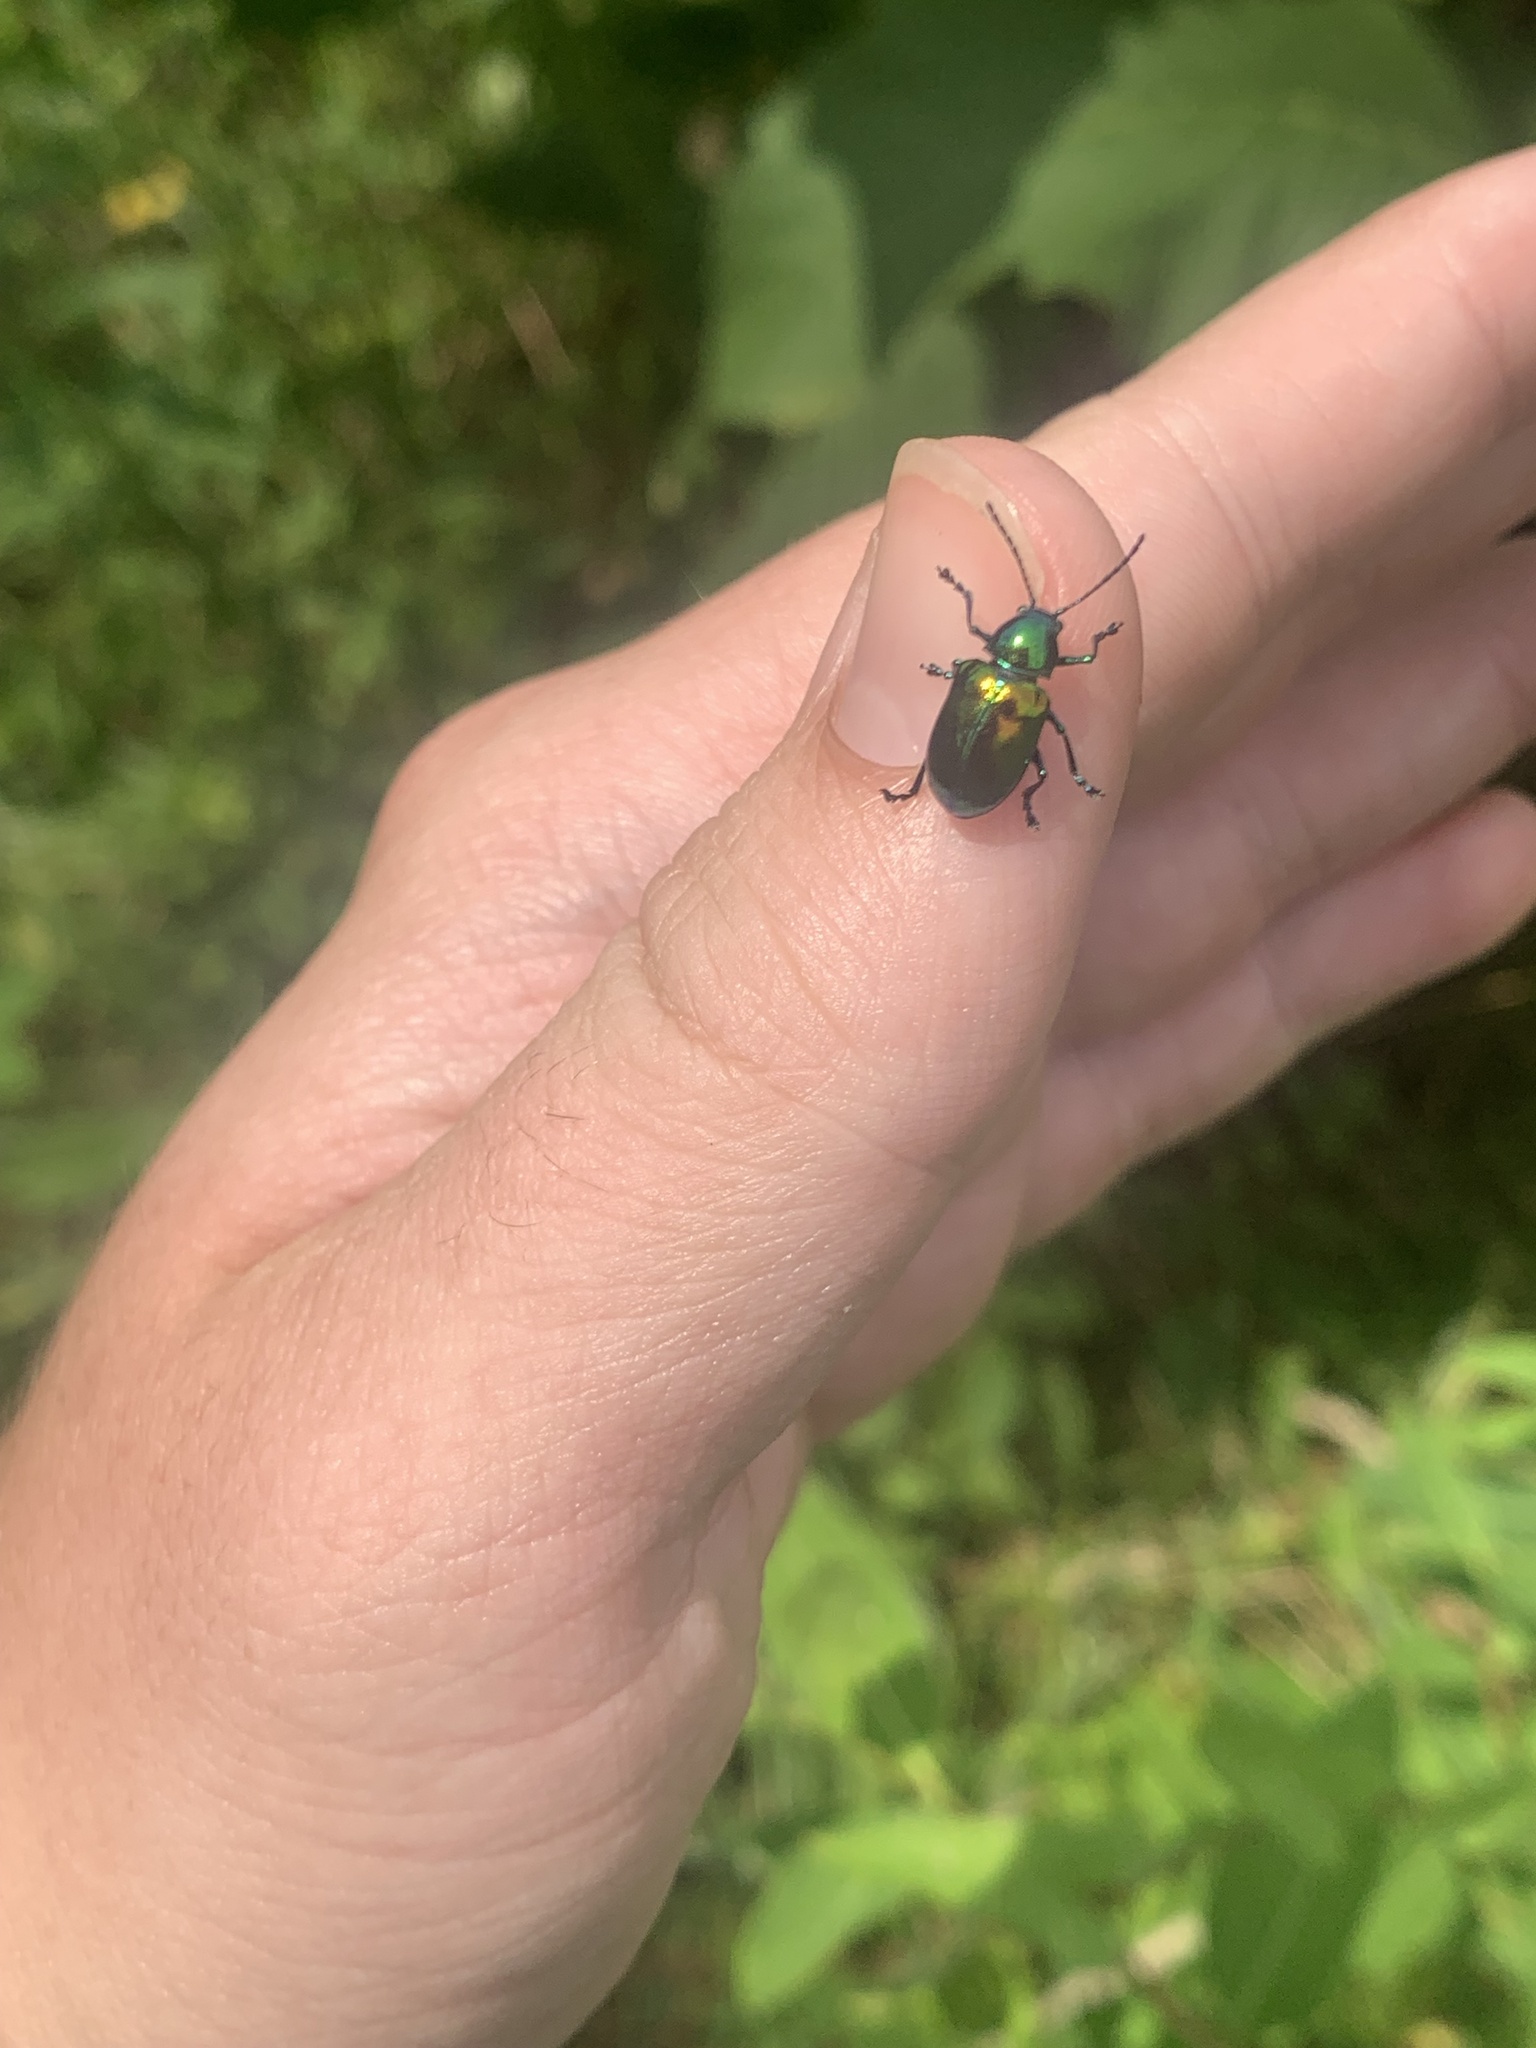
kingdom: Animalia
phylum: Arthropoda
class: Insecta
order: Coleoptera
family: Chrysomelidae
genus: Chrysochus
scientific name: Chrysochus auratus
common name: Dogbane leaf beetle
